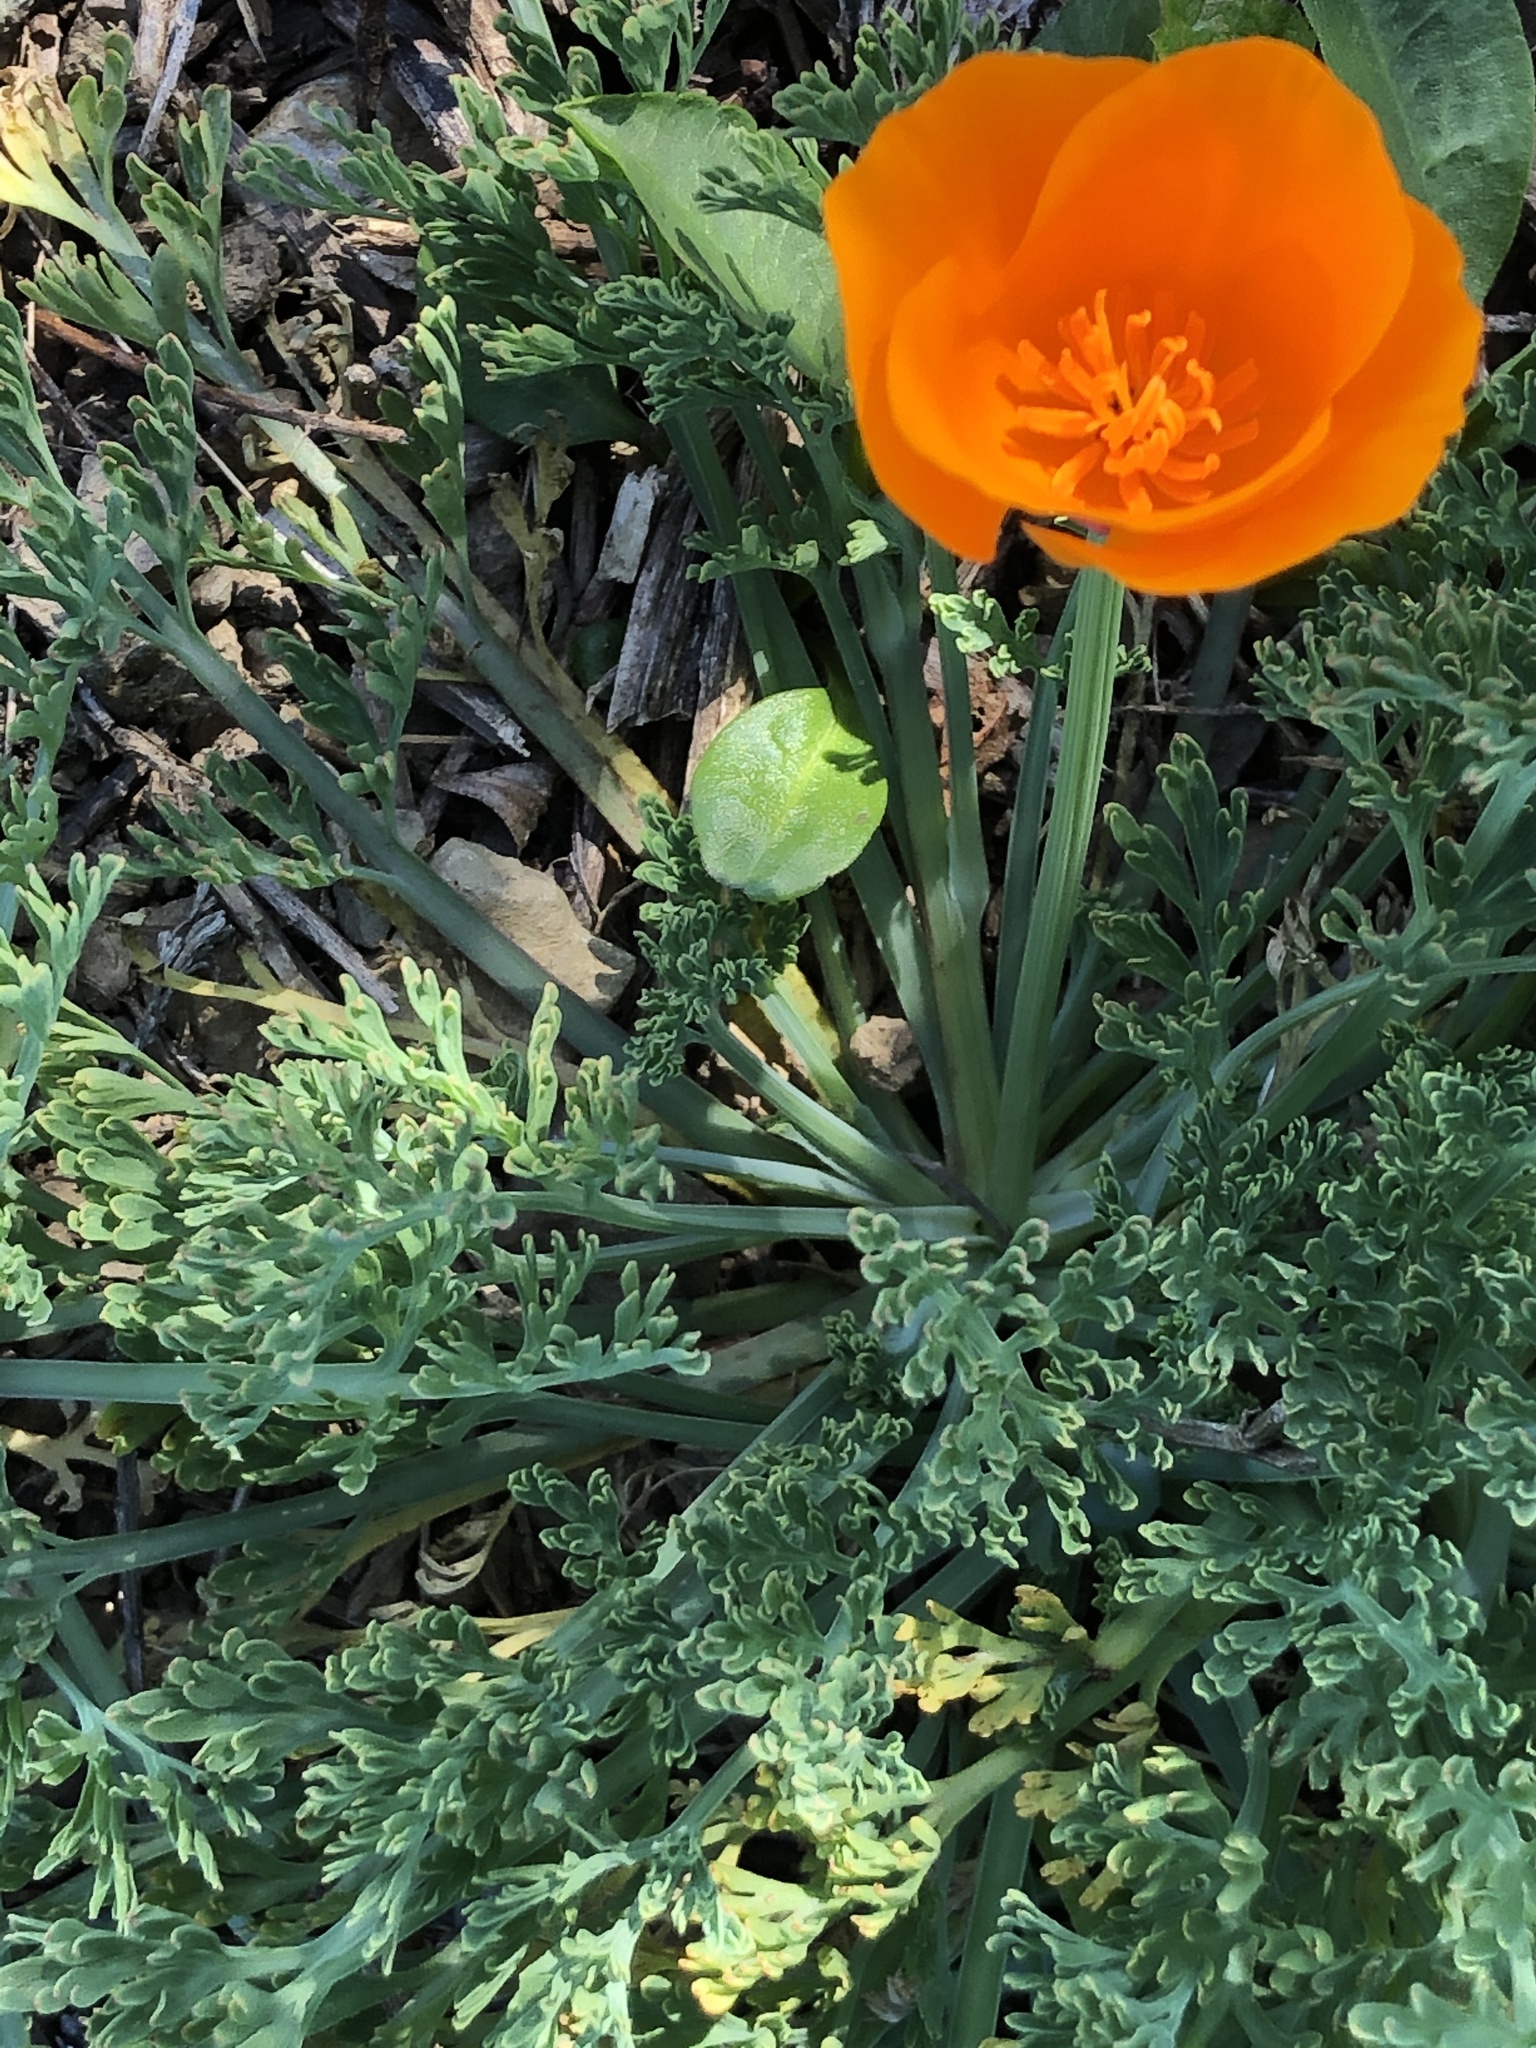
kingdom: Plantae
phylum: Tracheophyta
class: Magnoliopsida
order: Ranunculales
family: Papaveraceae
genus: Eschscholzia
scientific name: Eschscholzia californica
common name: California poppy
